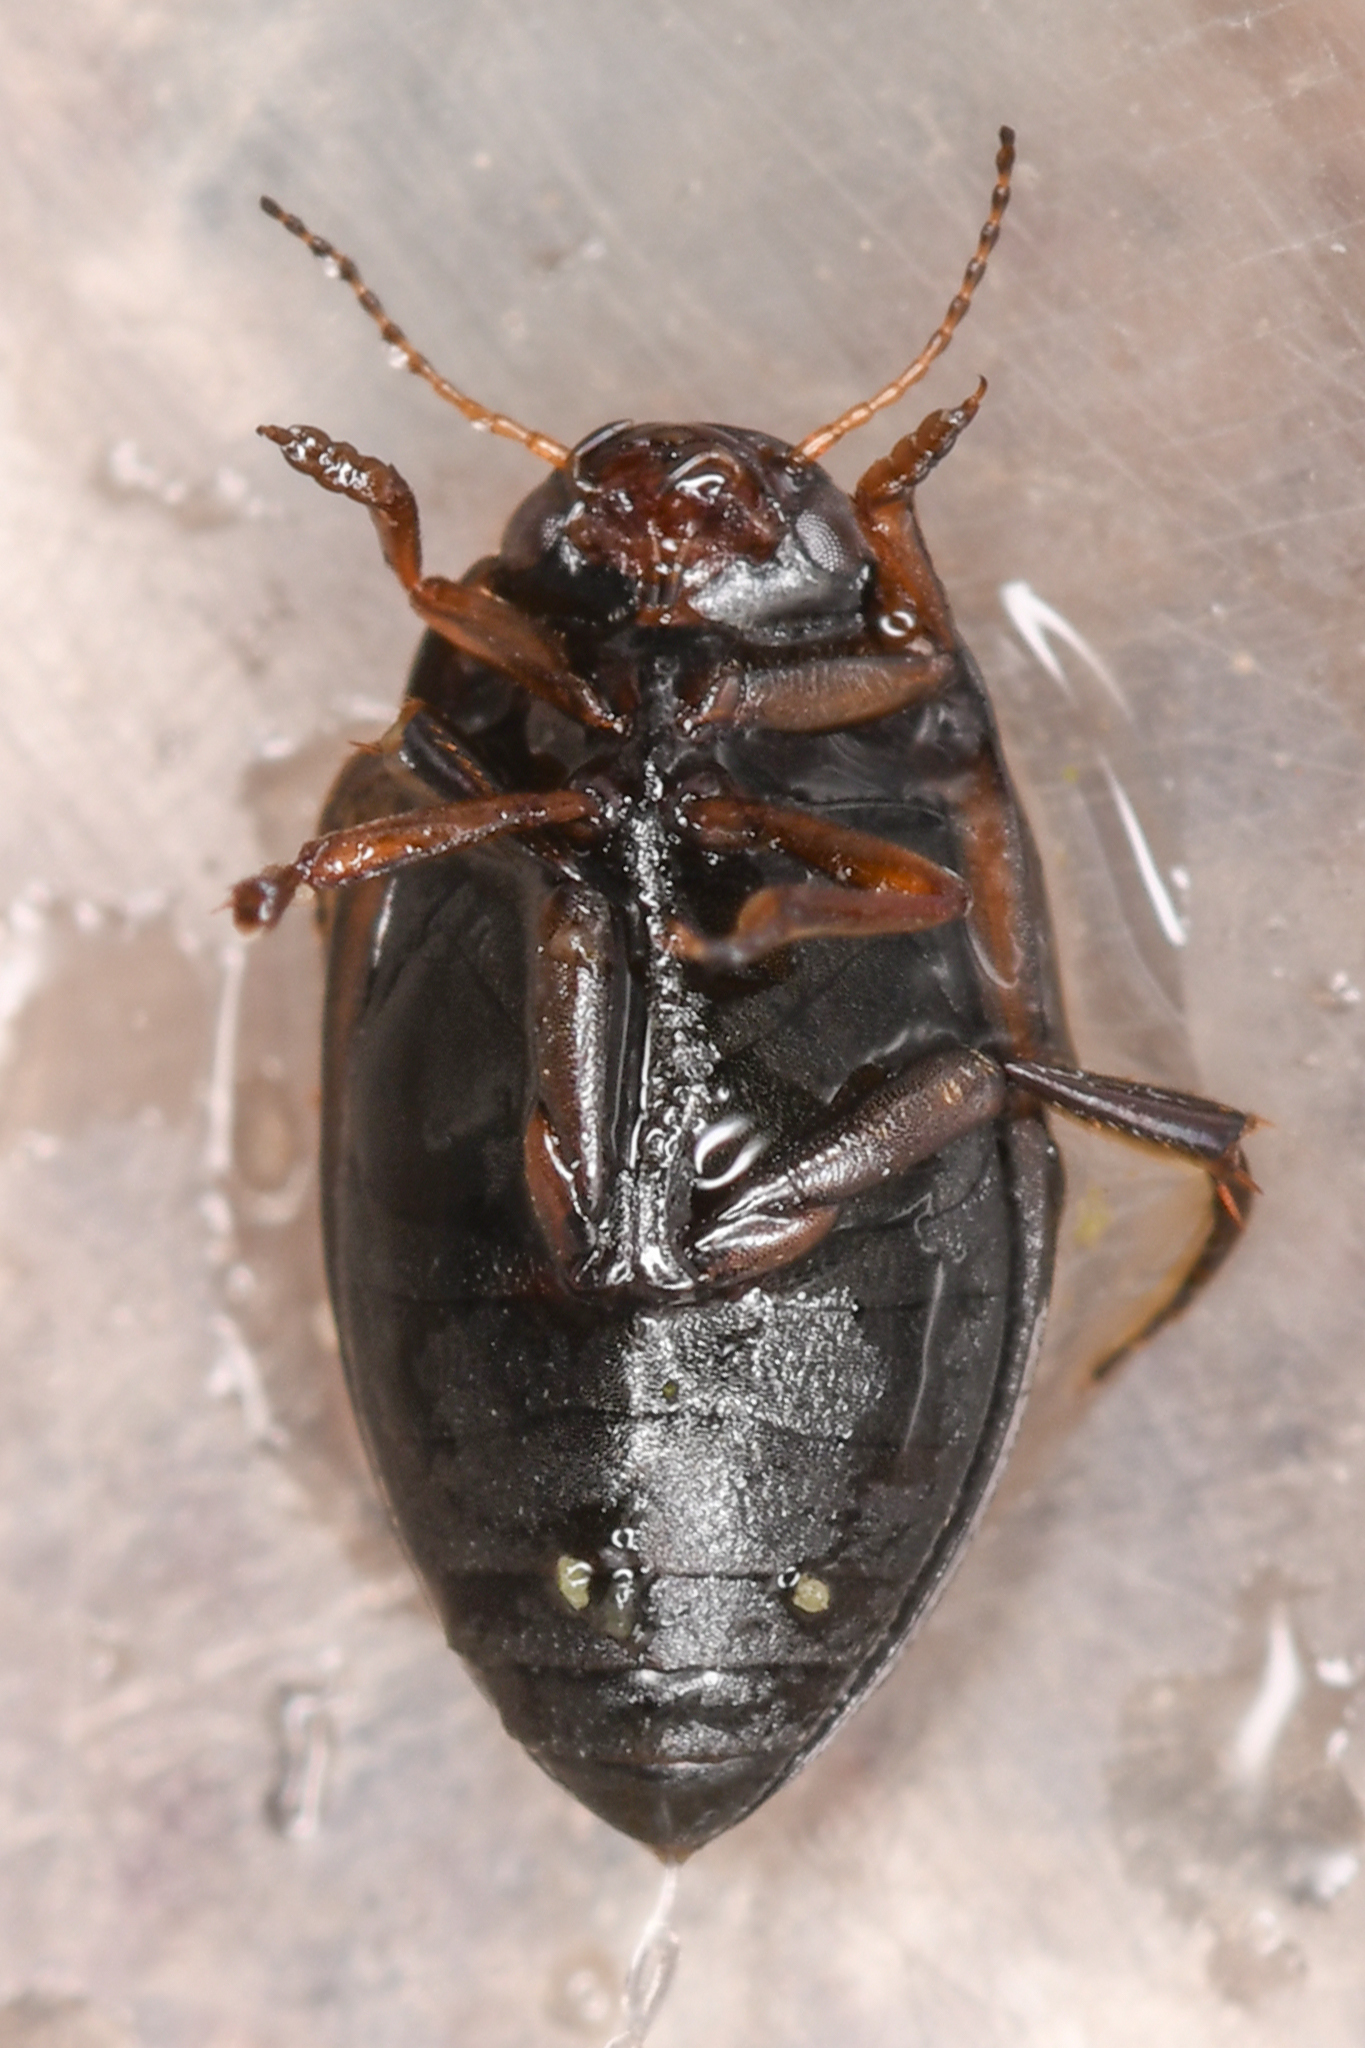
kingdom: Animalia
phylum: Arthropoda
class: Insecta
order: Coleoptera
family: Dytiscidae
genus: Leconectes
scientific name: Leconectes striatellus
